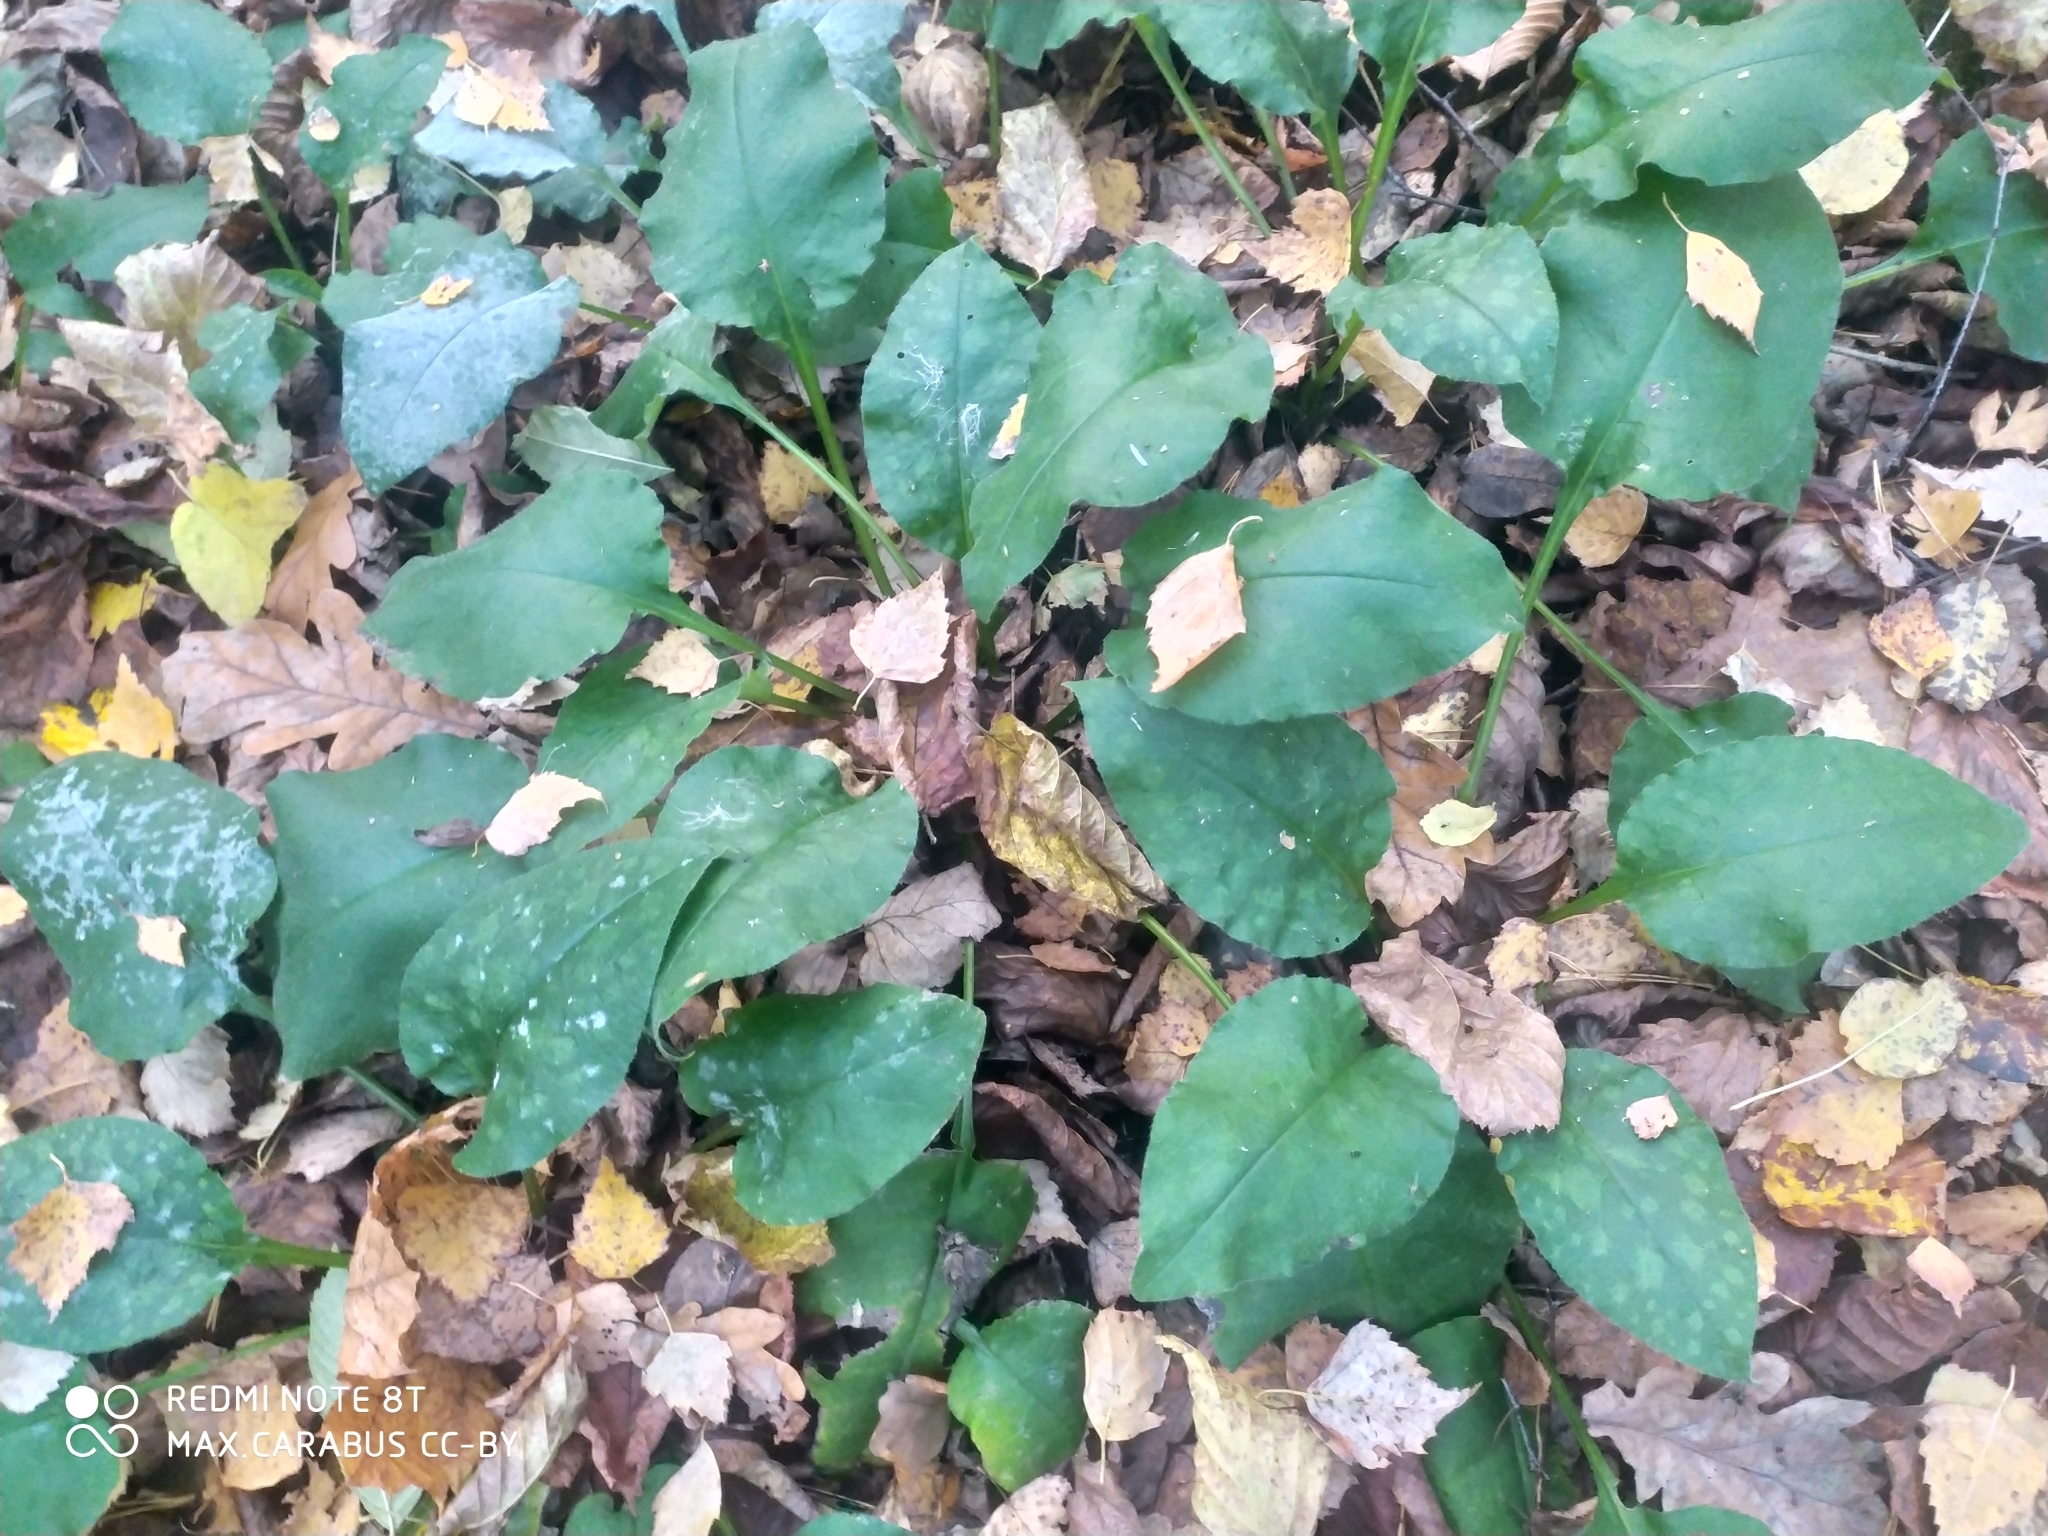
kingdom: Plantae
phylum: Tracheophyta
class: Magnoliopsida
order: Boraginales
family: Boraginaceae
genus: Pulmonaria
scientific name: Pulmonaria obscura
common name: Suffolk lungwort
